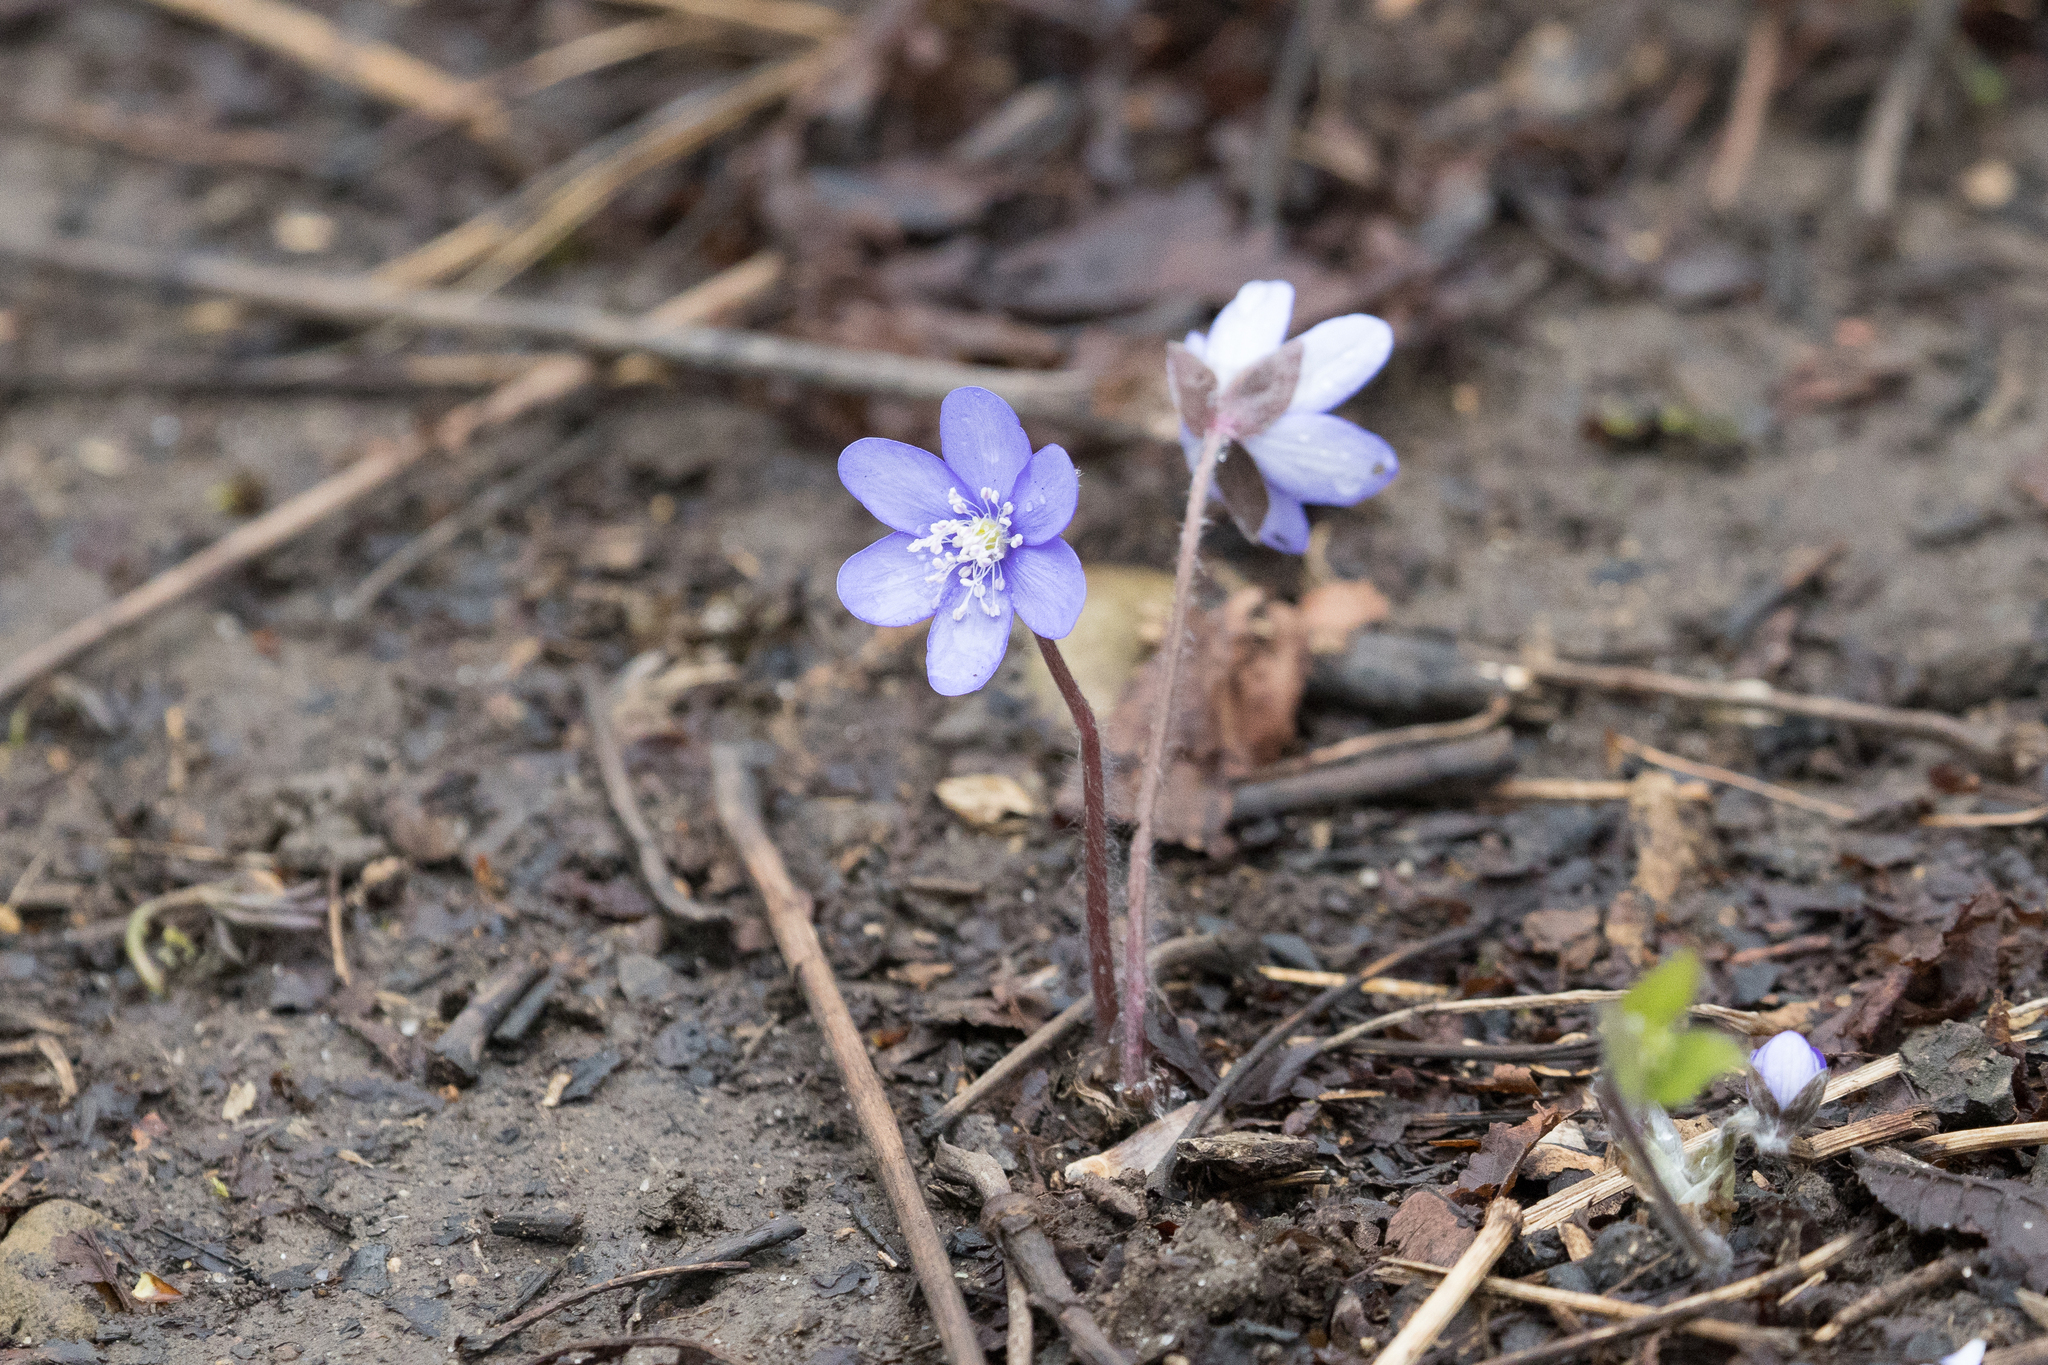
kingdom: Plantae
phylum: Tracheophyta
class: Magnoliopsida
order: Ranunculales
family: Ranunculaceae
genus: Hepatica
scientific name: Hepatica nobilis
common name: Liverleaf
